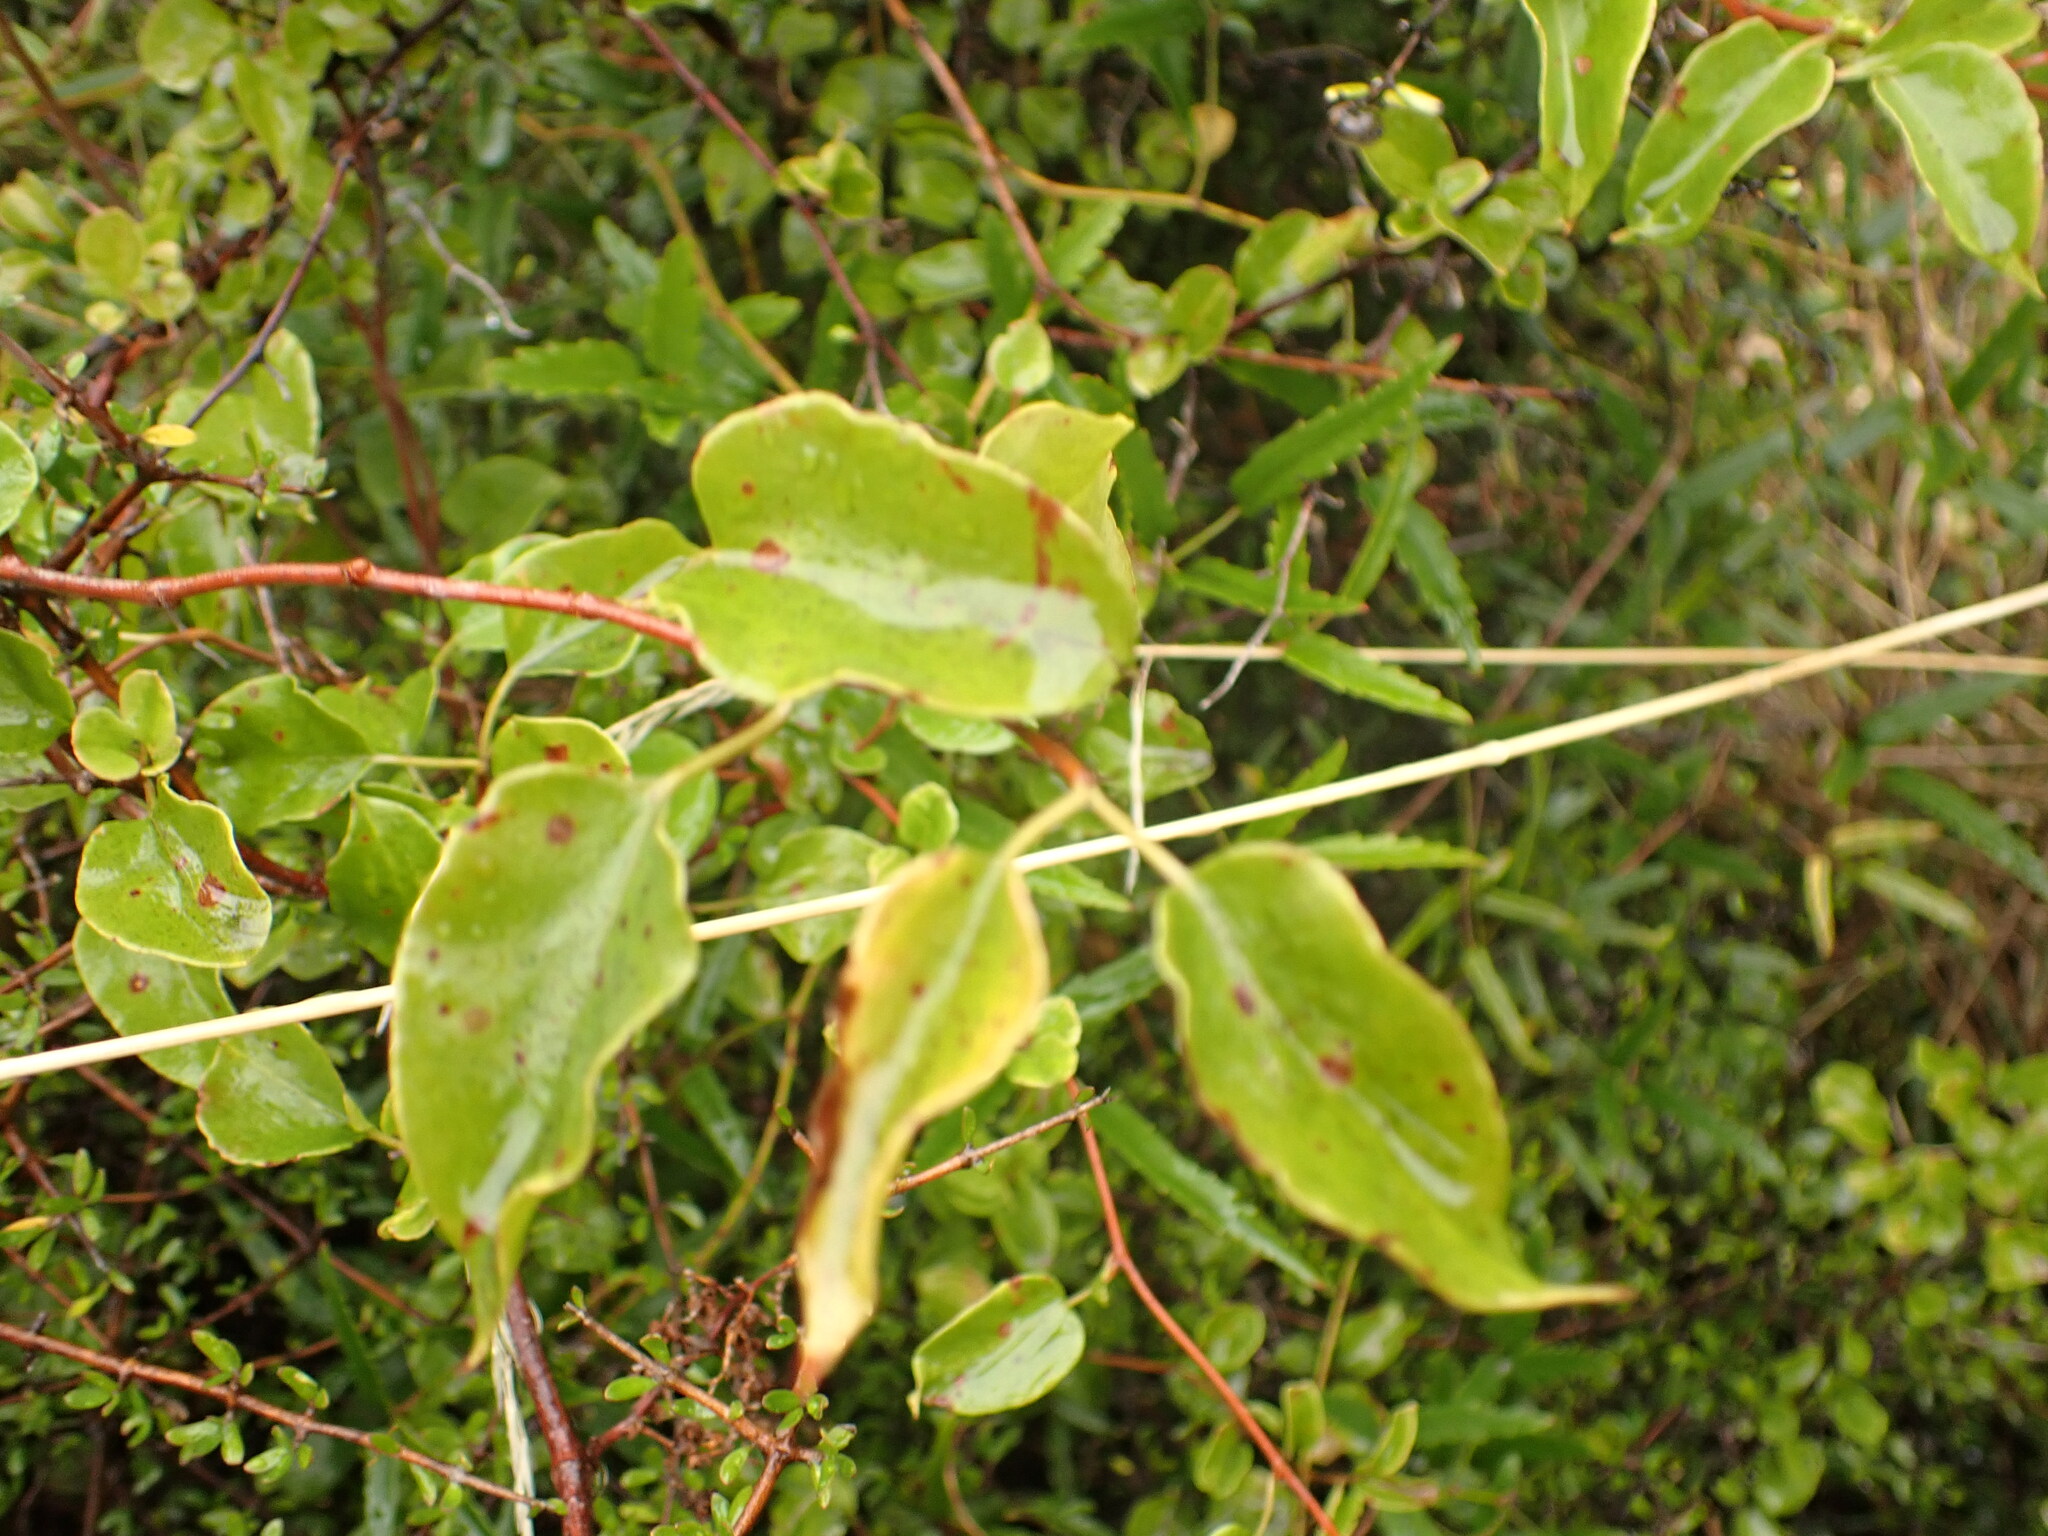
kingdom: Plantae
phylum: Tracheophyta
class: Magnoliopsida
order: Caryophyllales
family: Polygonaceae
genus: Muehlenbeckia
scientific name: Muehlenbeckia australis
